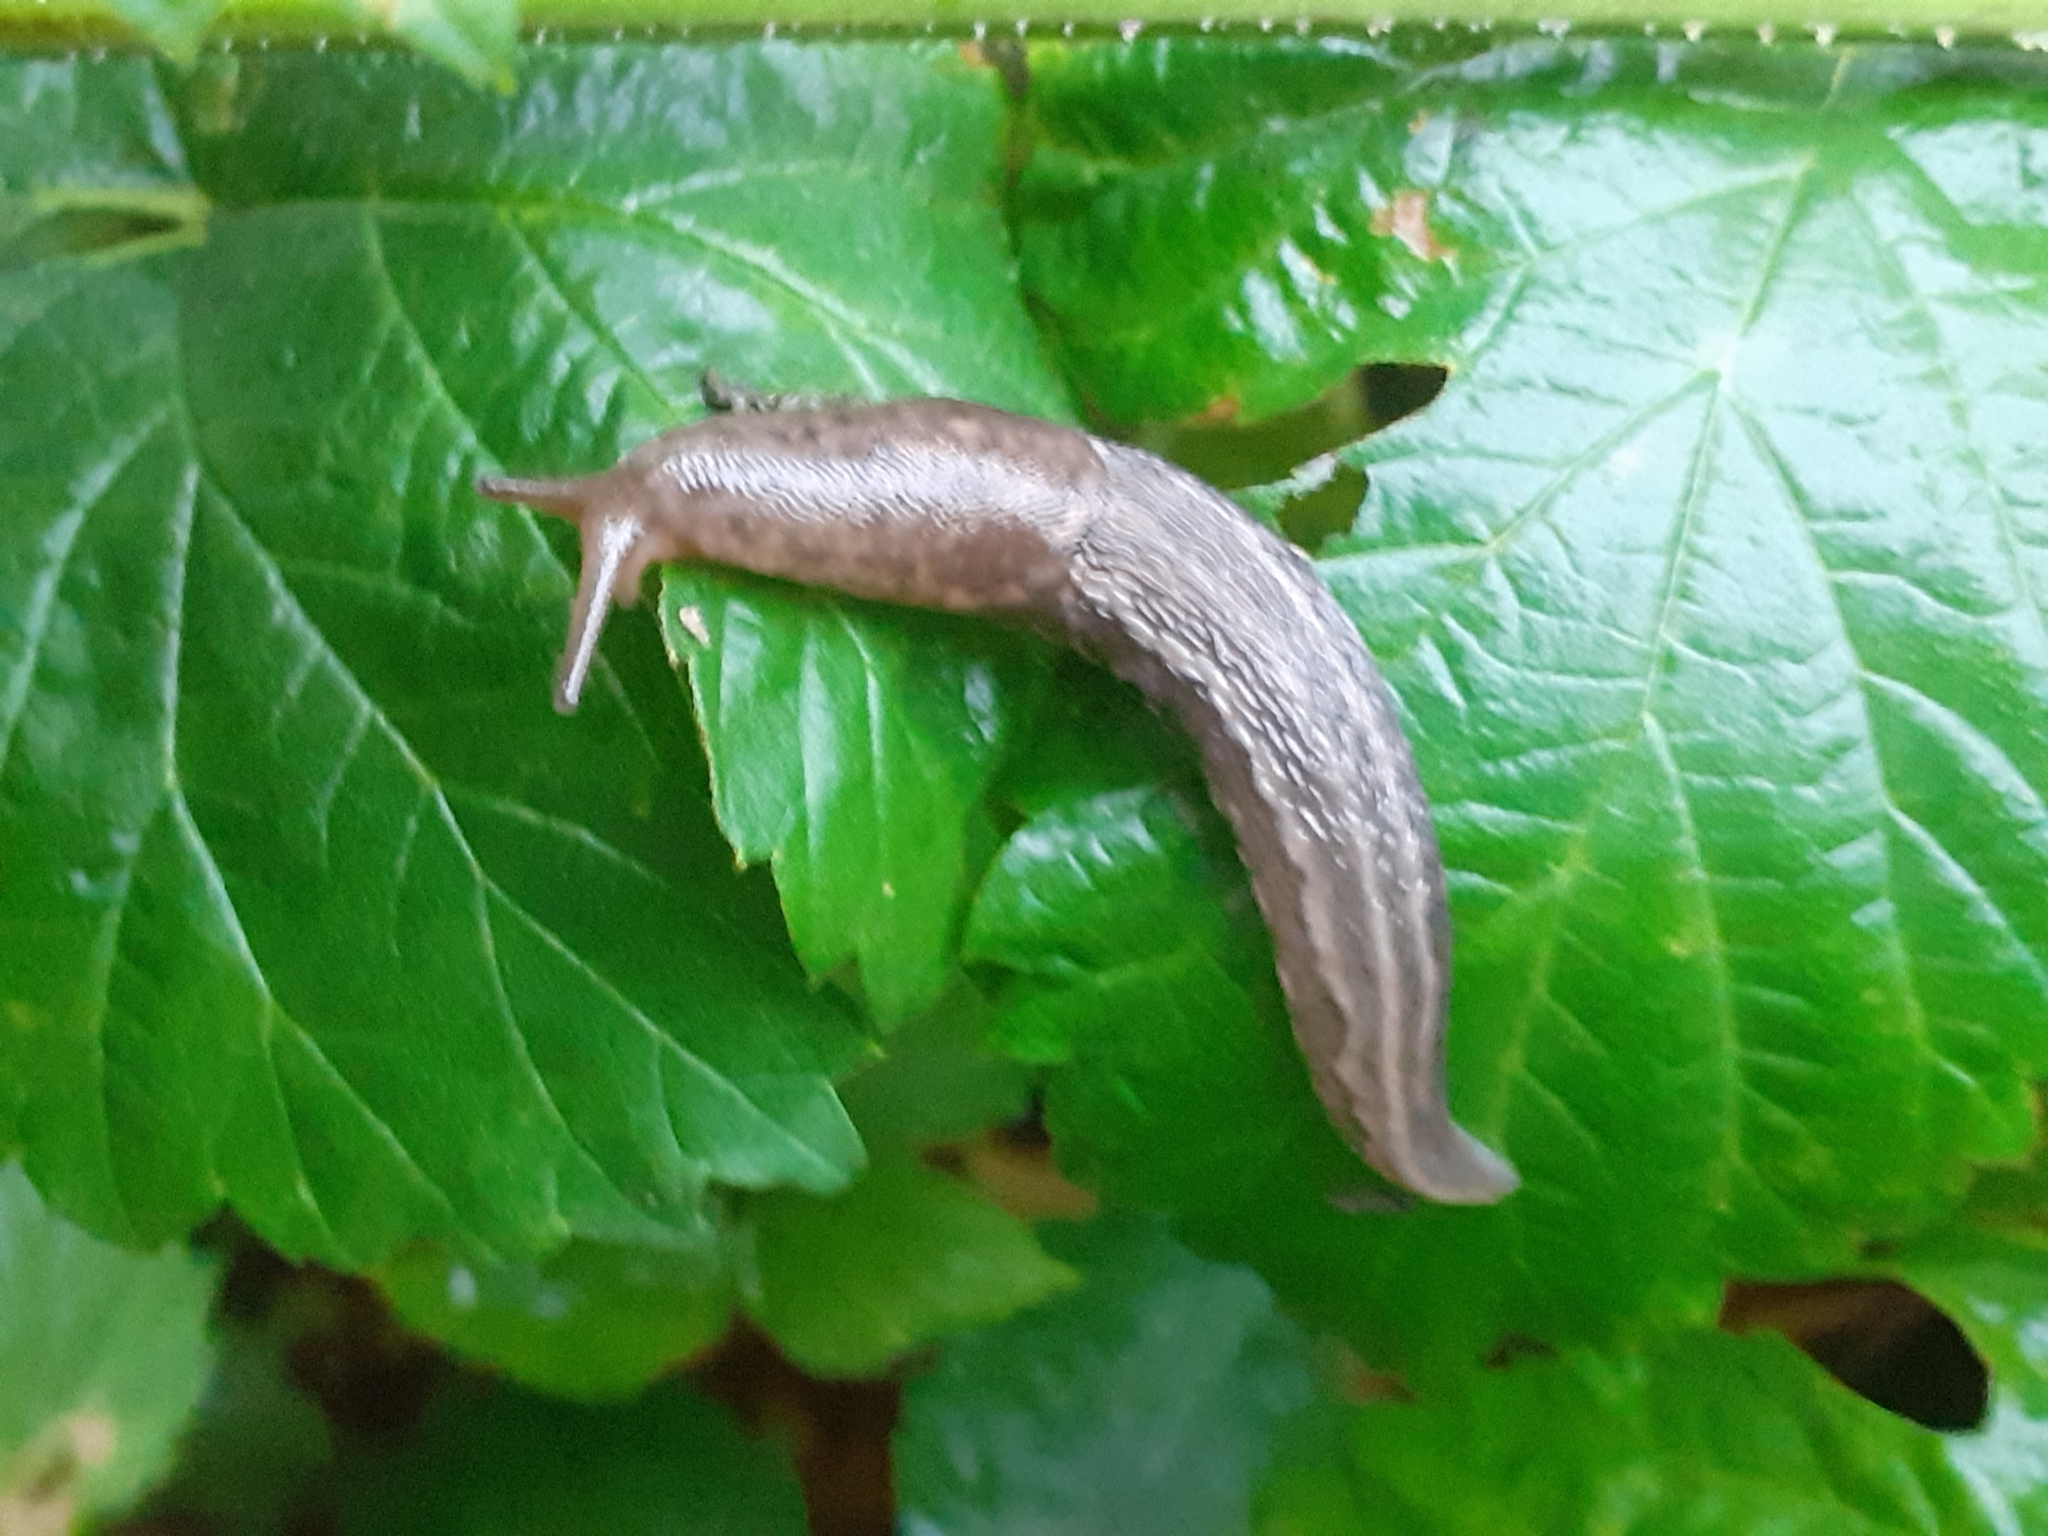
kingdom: Animalia
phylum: Mollusca
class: Gastropoda
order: Stylommatophora
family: Limacidae
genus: Limax
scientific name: Limax maximus
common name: Great grey slug
